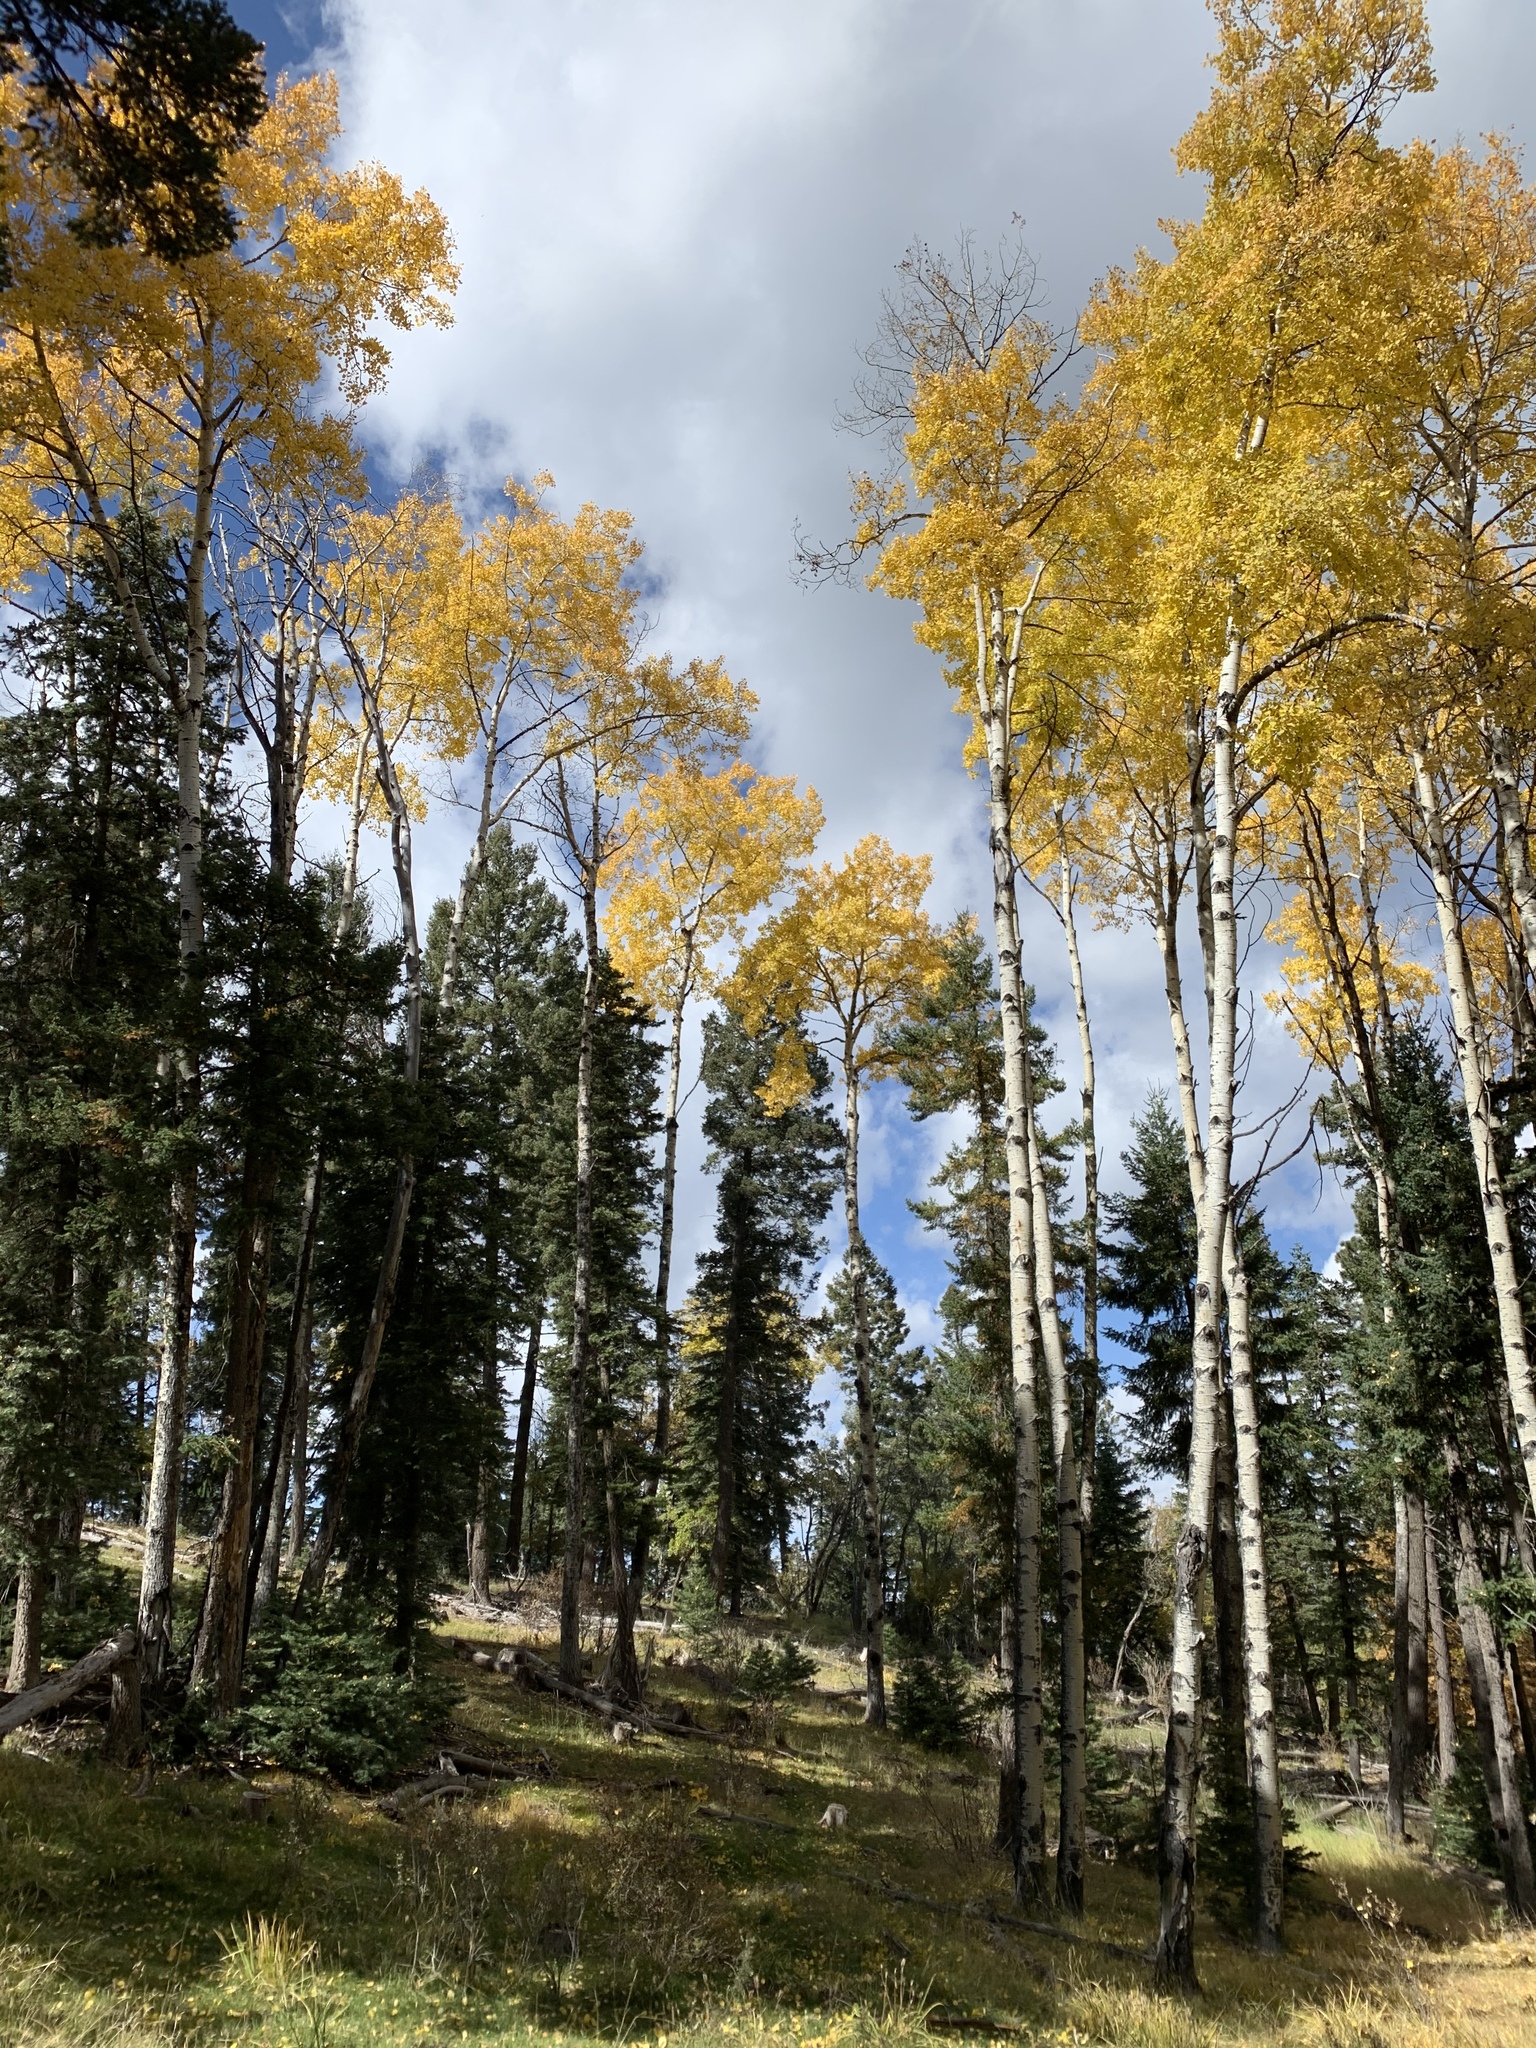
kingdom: Plantae
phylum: Tracheophyta
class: Magnoliopsida
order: Malpighiales
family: Salicaceae
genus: Populus
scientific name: Populus tremuloides
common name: Quaking aspen
